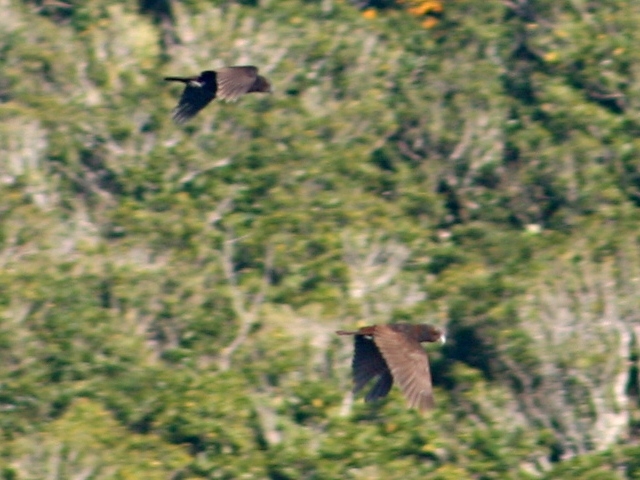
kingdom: Animalia
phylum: Chordata
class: Aves
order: Psittaciformes
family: Psittacidae
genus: Nestor
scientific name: Nestor meridionalis
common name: New zealand kaka
